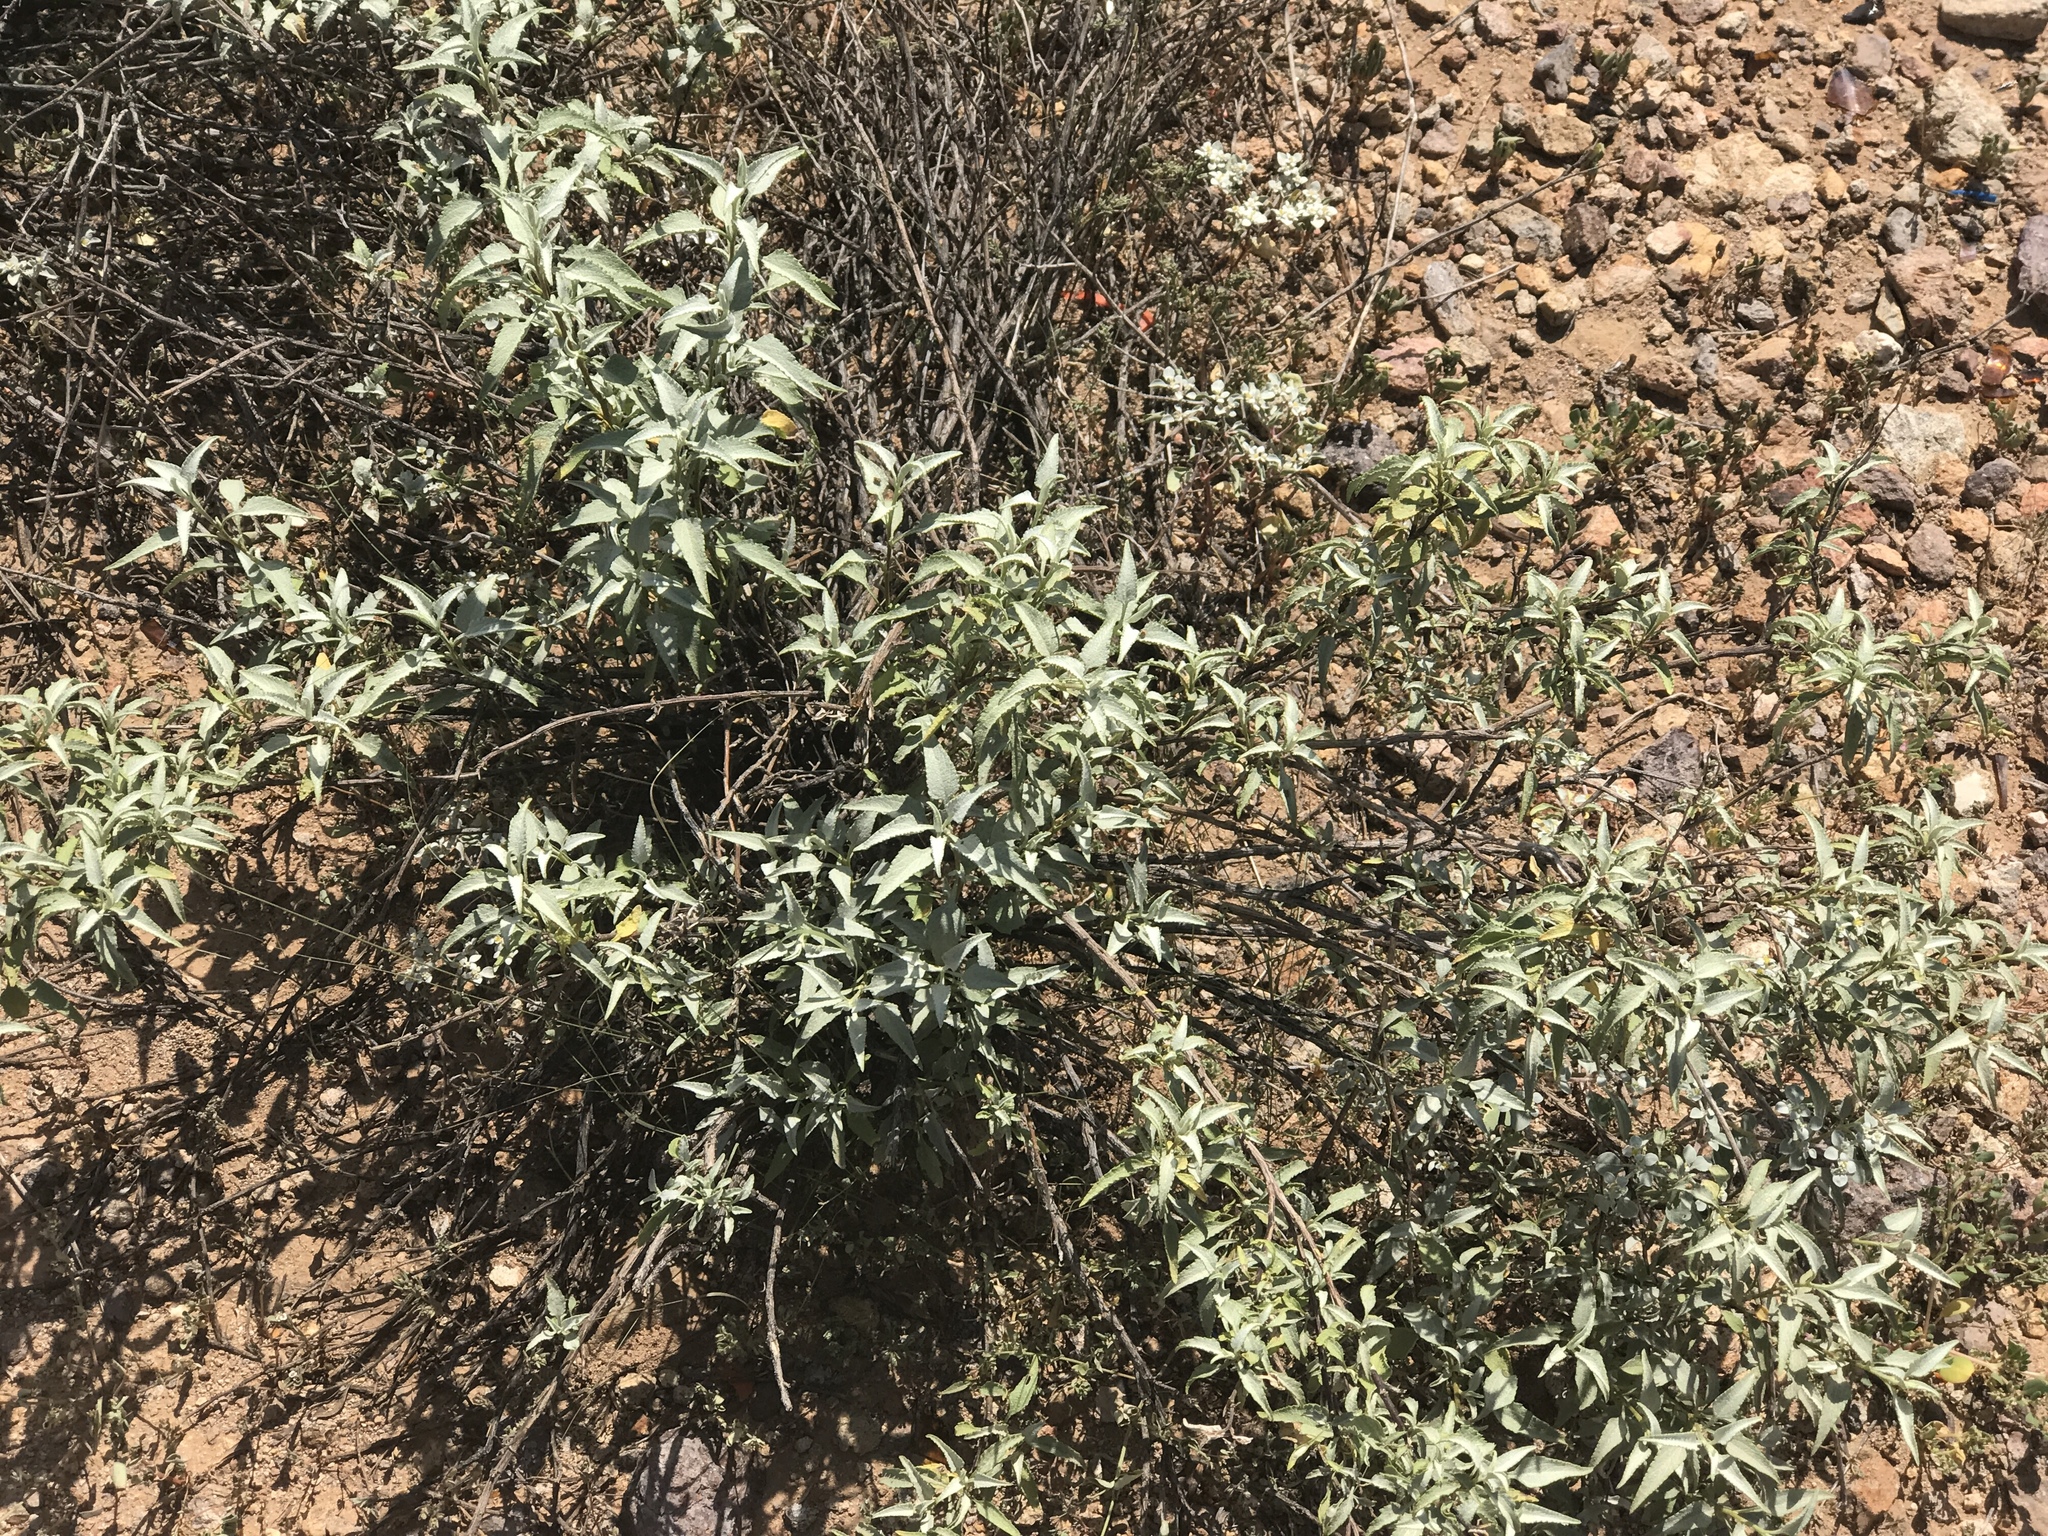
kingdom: Plantae
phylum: Tracheophyta
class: Magnoliopsida
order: Asterales
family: Asteraceae
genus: Ambrosia
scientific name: Ambrosia deltoidea
